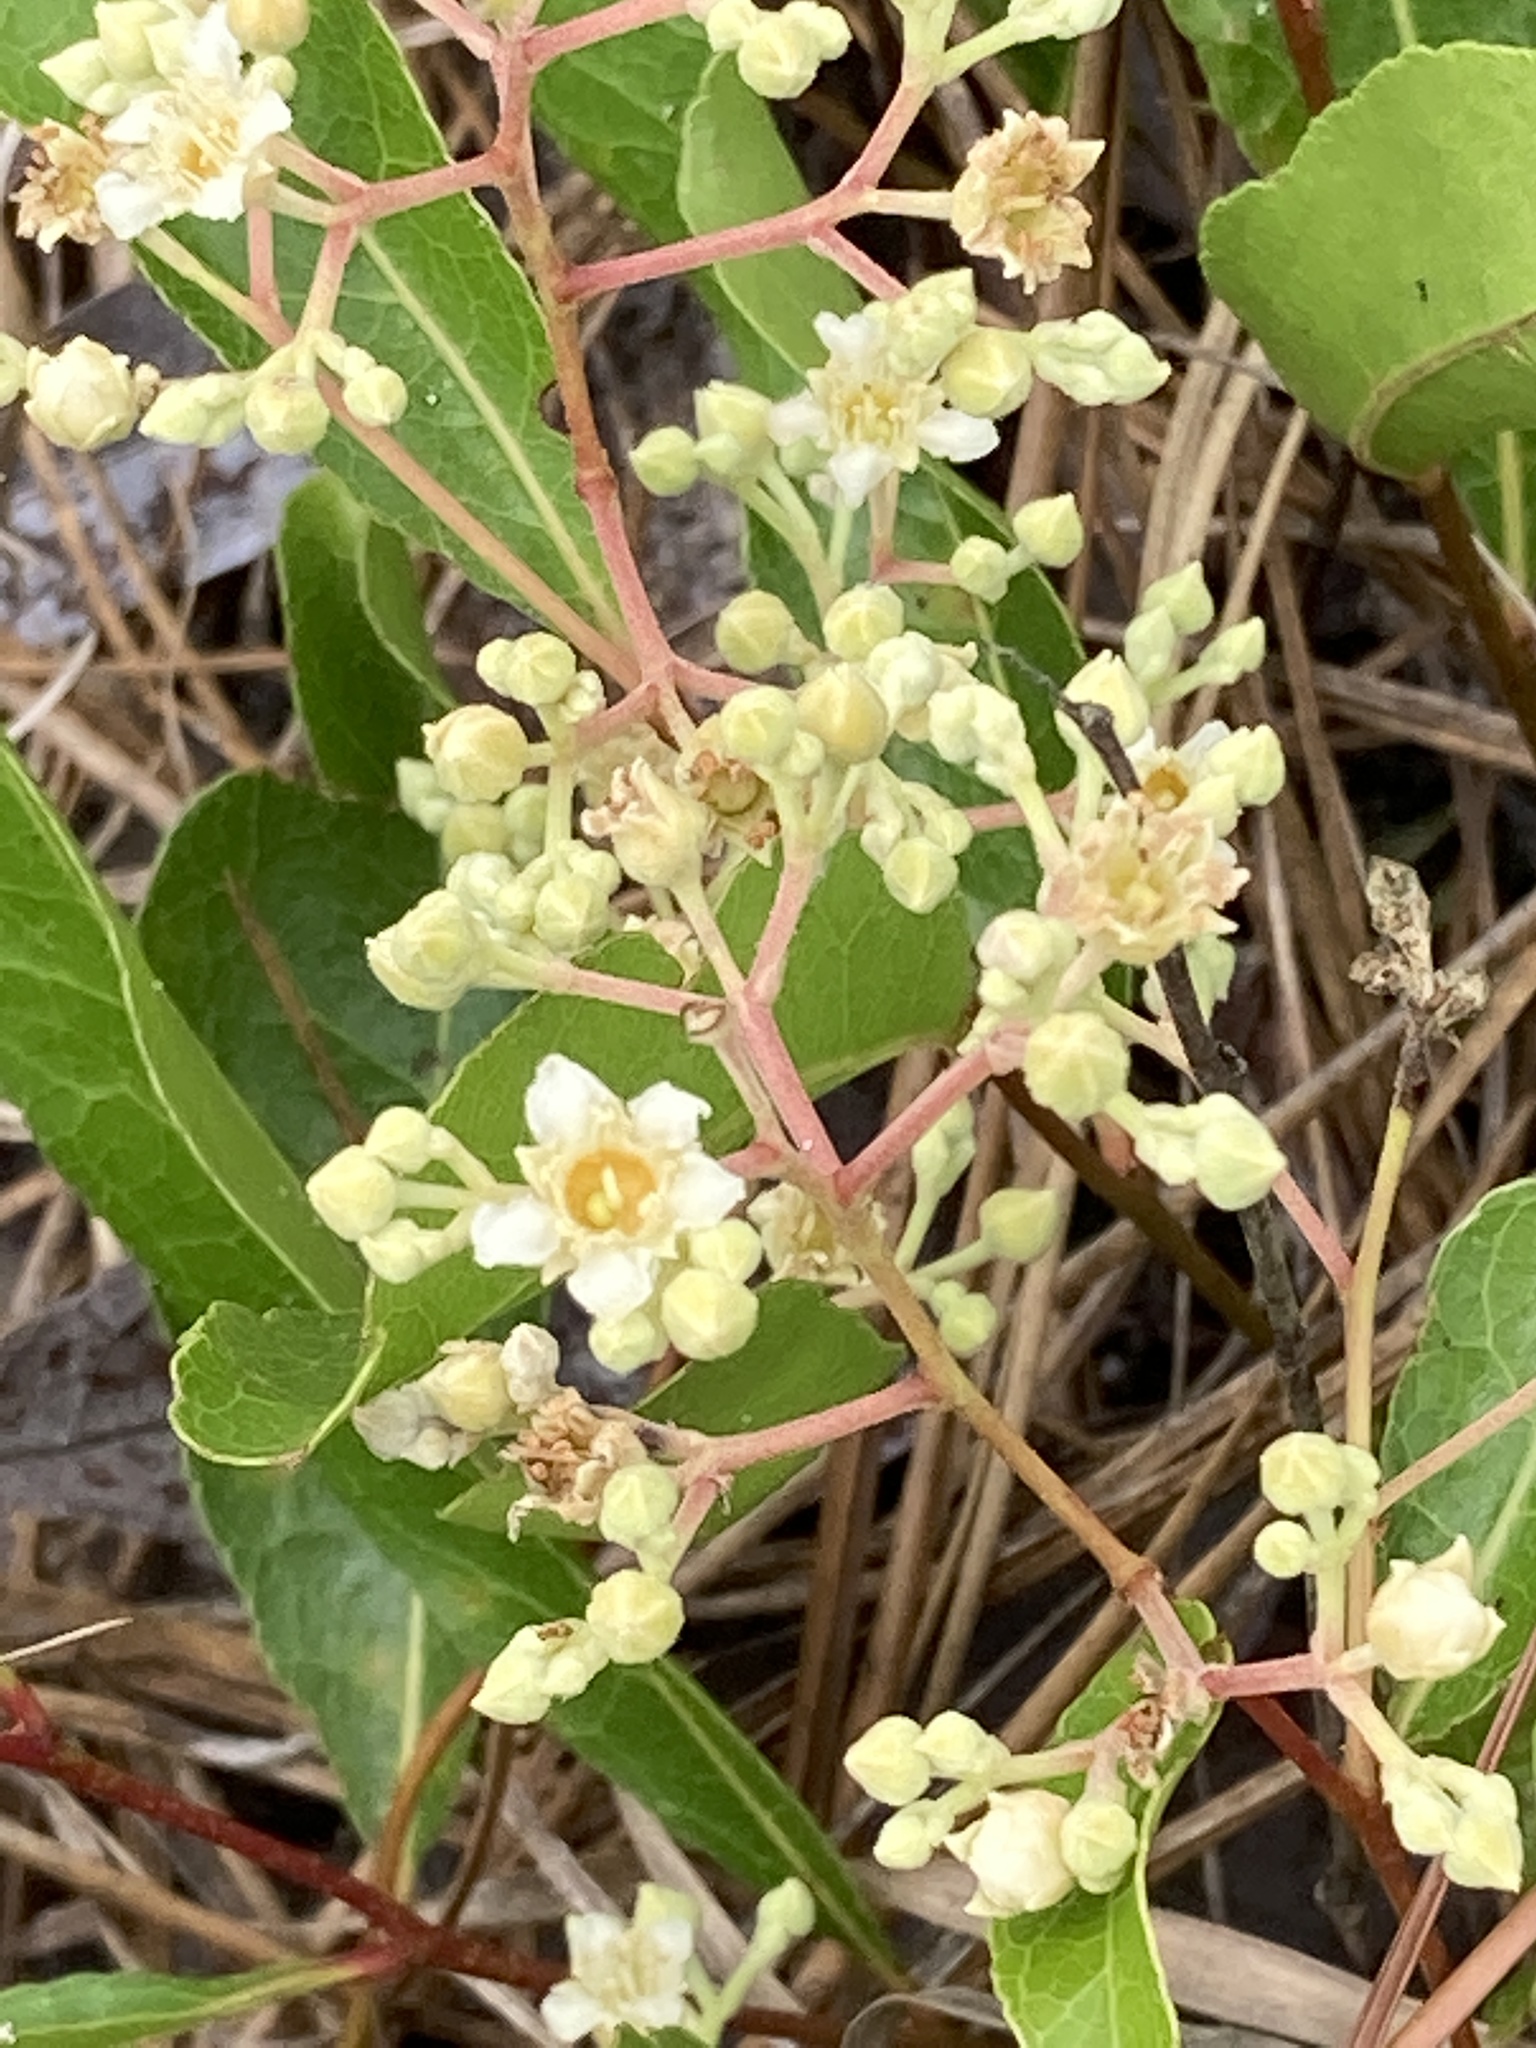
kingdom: Plantae
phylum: Tracheophyta
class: Magnoliopsida
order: Malpighiales
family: Chrysobalanaceae
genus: Geobalanus
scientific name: Geobalanus oblongifolius
